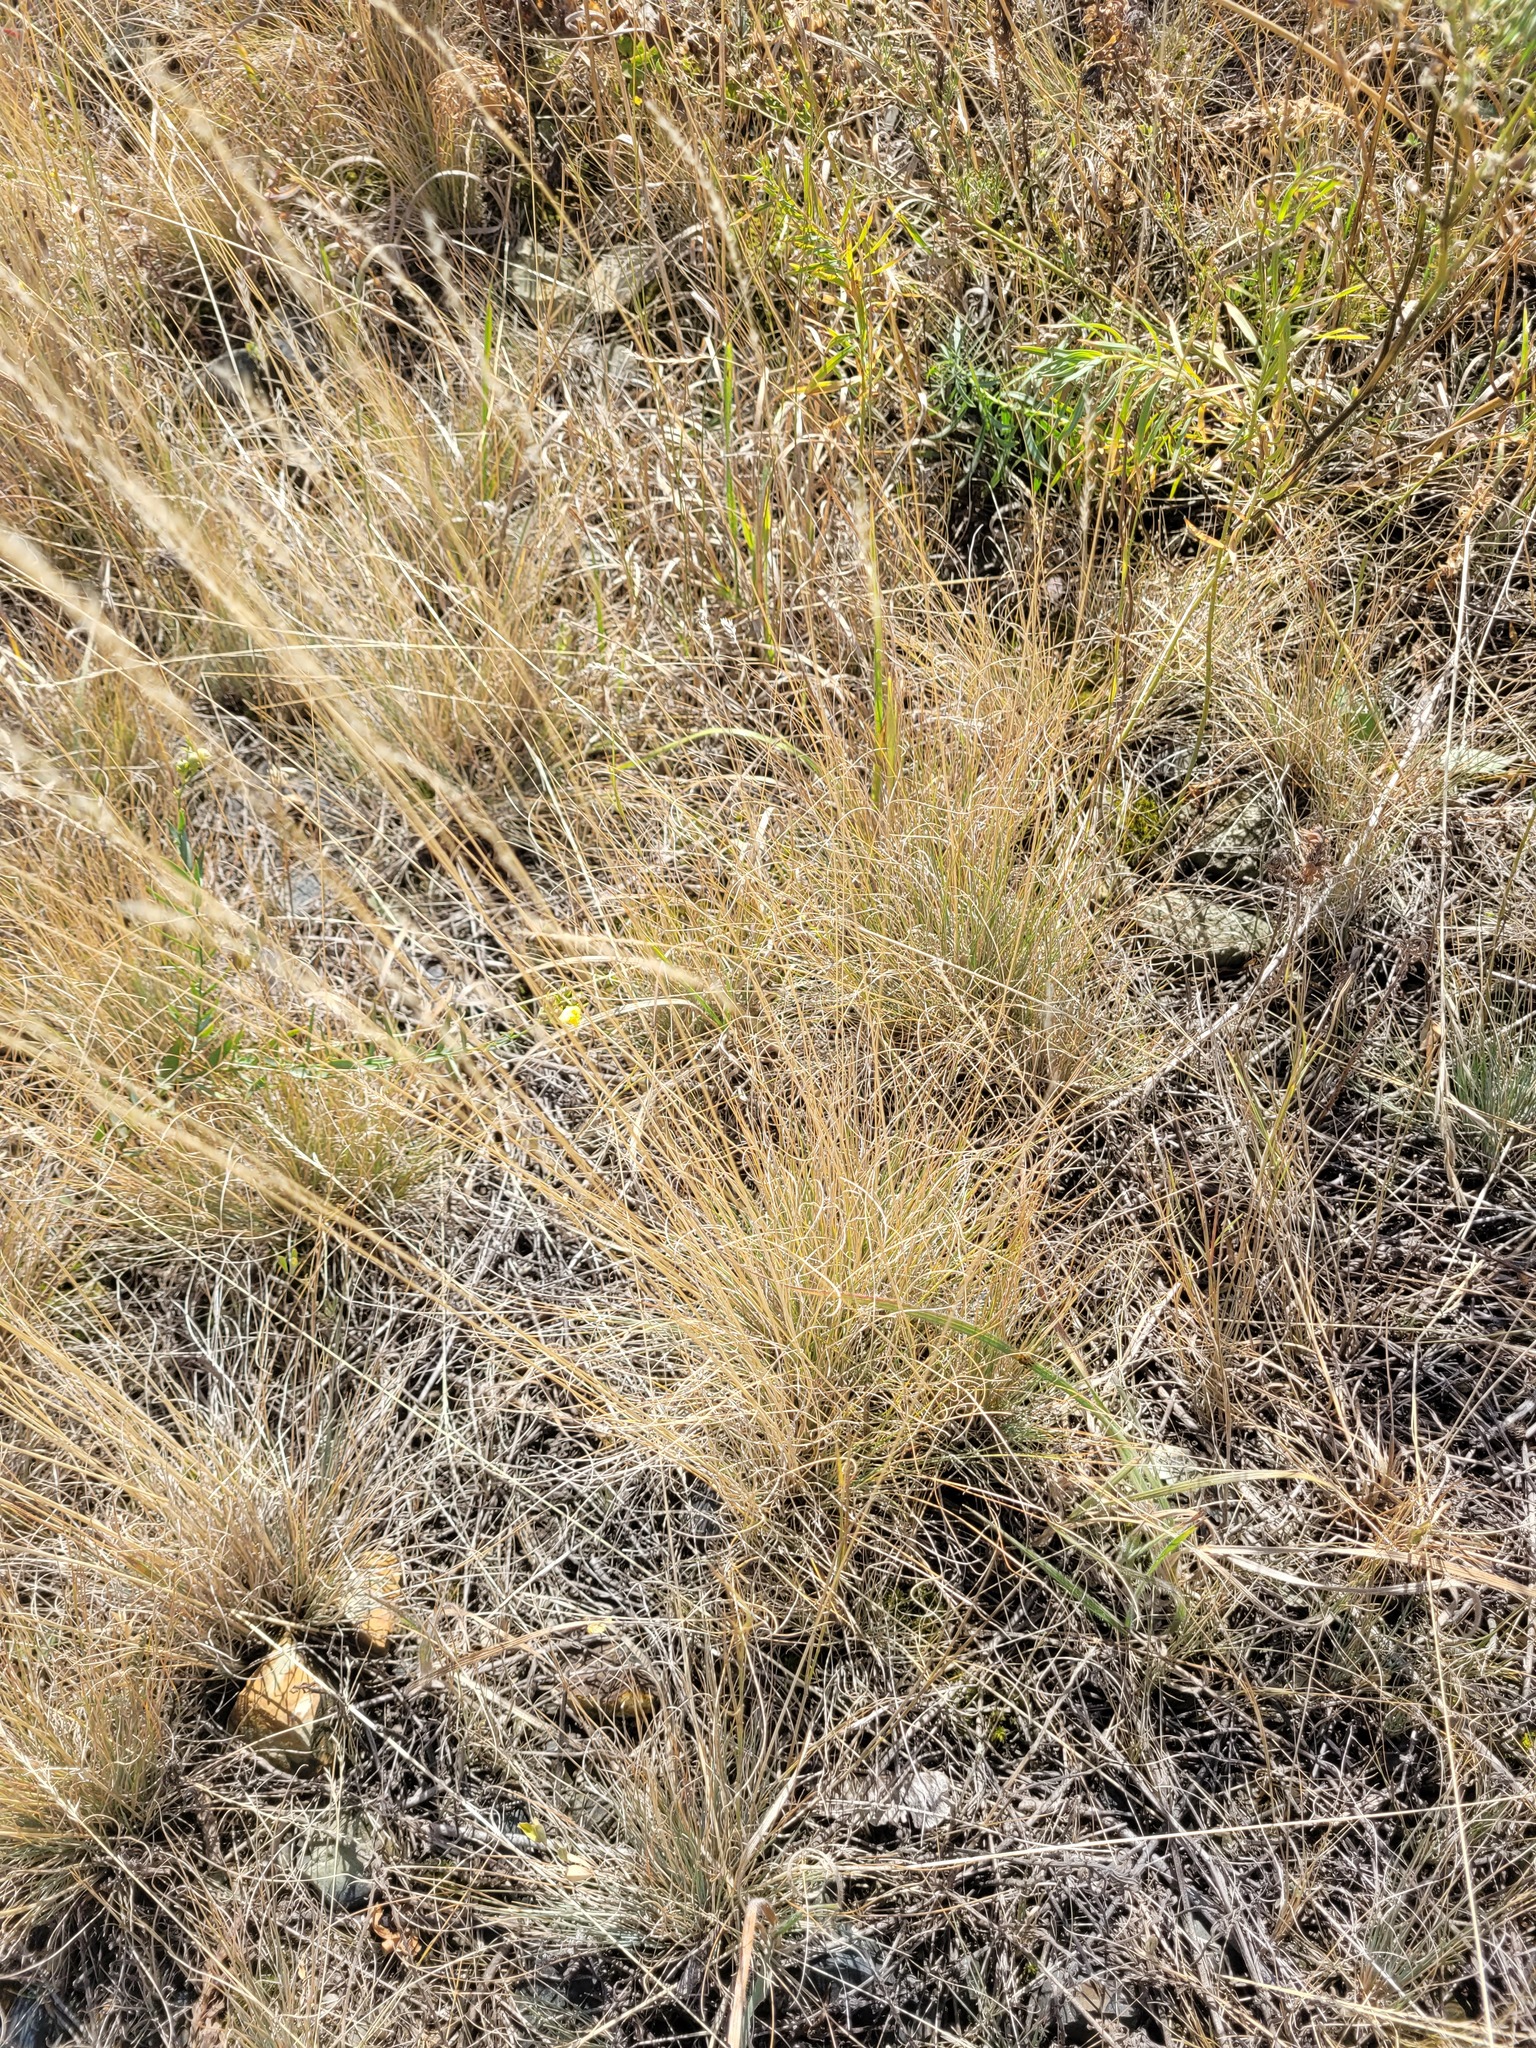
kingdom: Plantae
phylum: Tracheophyta
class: Liliopsida
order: Poales
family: Poaceae
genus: Festuca
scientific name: Festuca valesiaca
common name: Volga fescue
